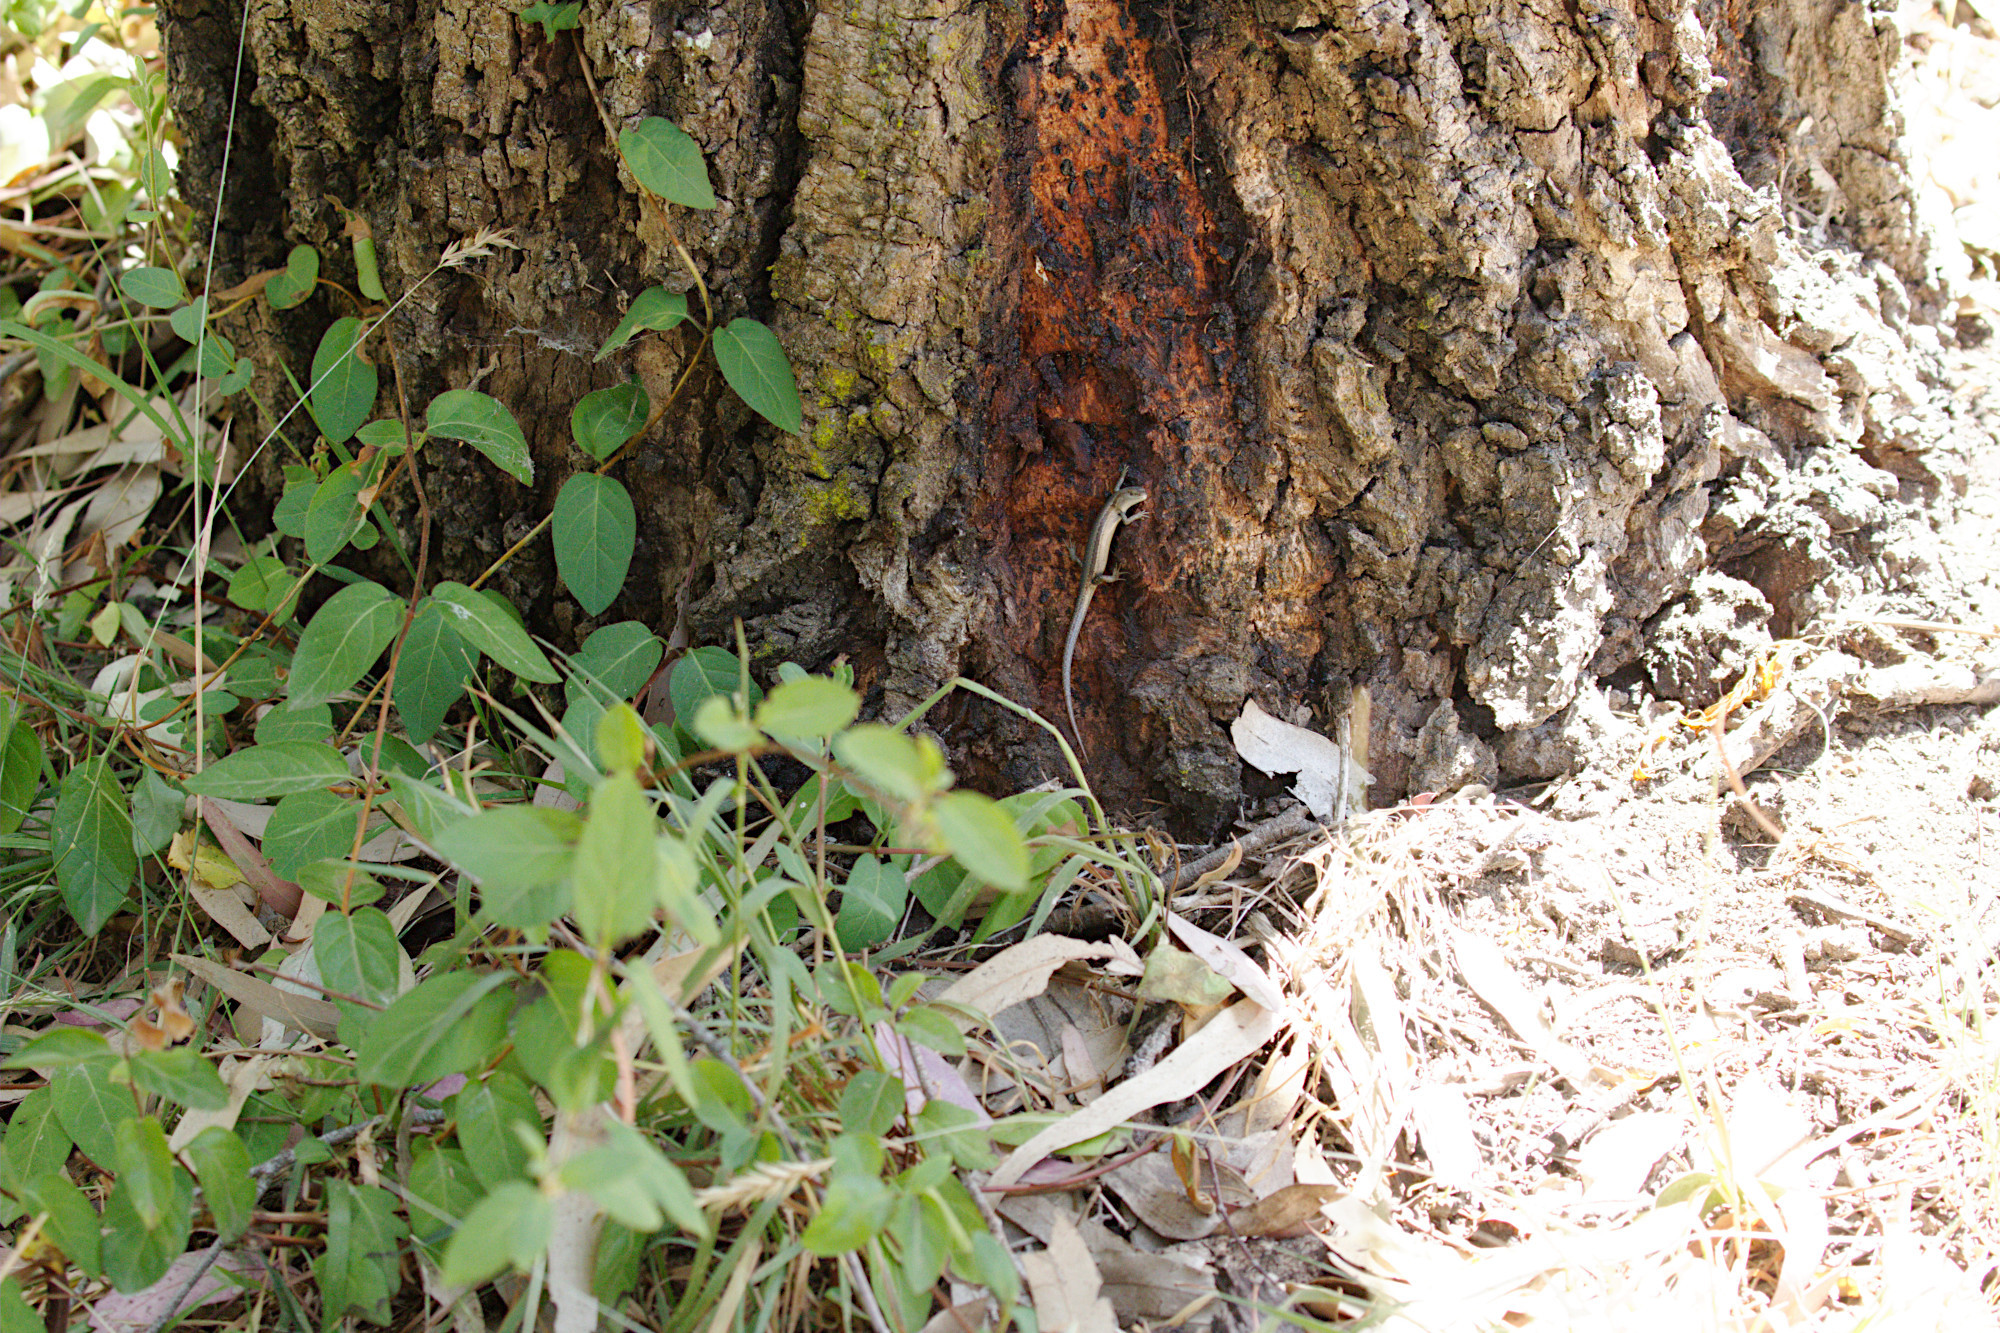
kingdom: Animalia
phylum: Chordata
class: Squamata
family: Scincidae
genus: Lampropholis
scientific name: Lampropholis guichenoti
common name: Garden skink
